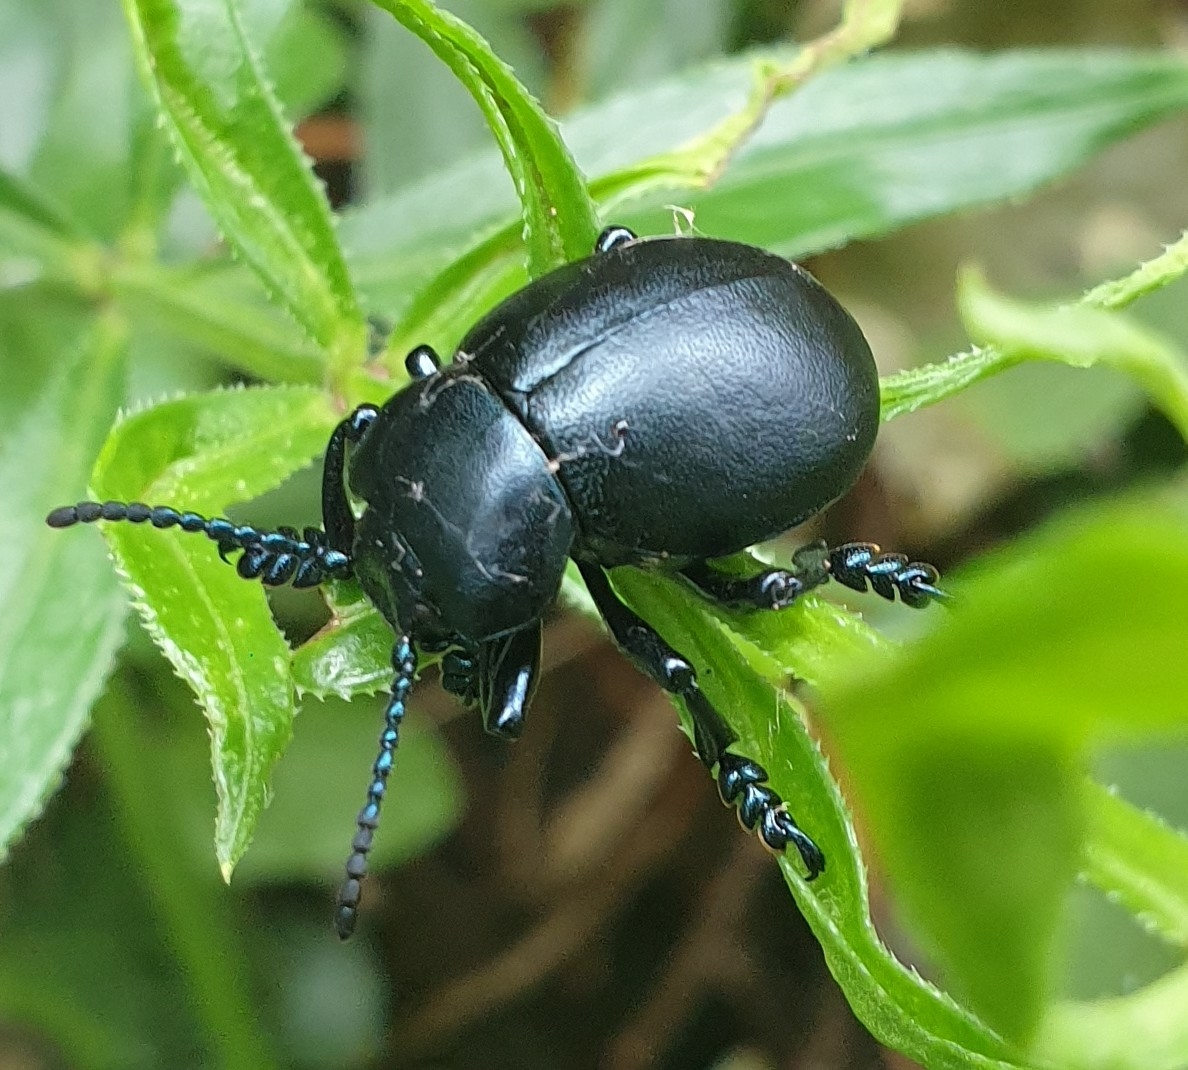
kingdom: Animalia
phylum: Arthropoda
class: Insecta
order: Coleoptera
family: Chrysomelidae
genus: Timarcha
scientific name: Timarcha tenebricosa
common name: Bloody-nosed beetle
